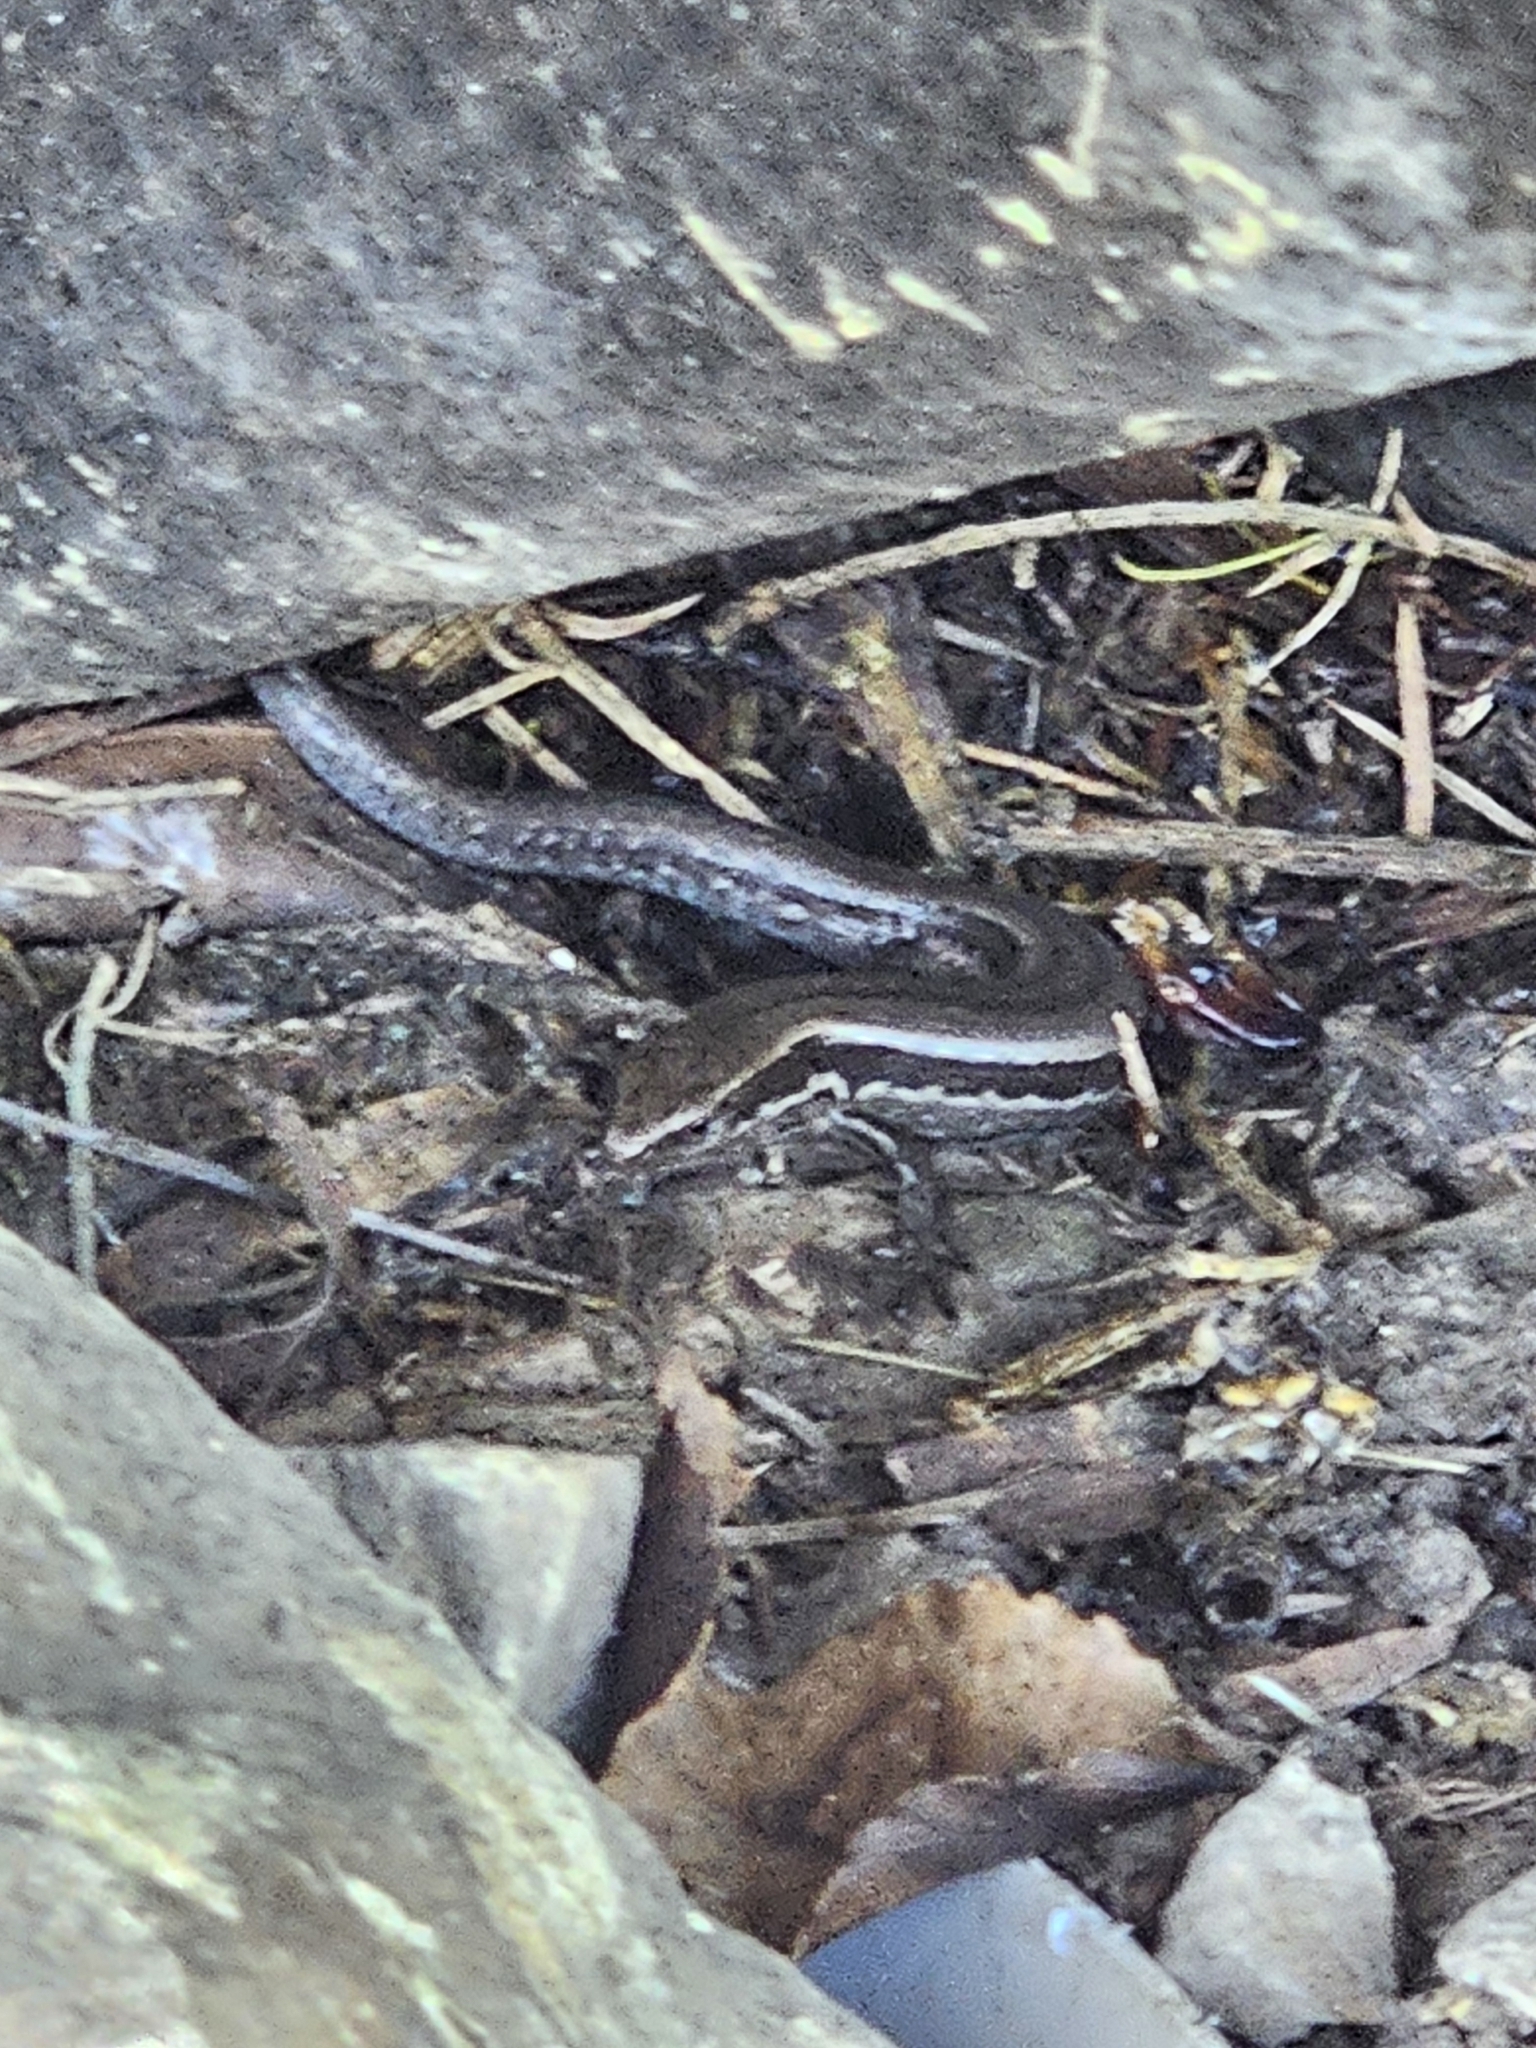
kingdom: Animalia
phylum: Chordata
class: Squamata
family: Scincidae
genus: Oligosoma
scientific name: Oligosoma polychroma
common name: Common new zealand skink
